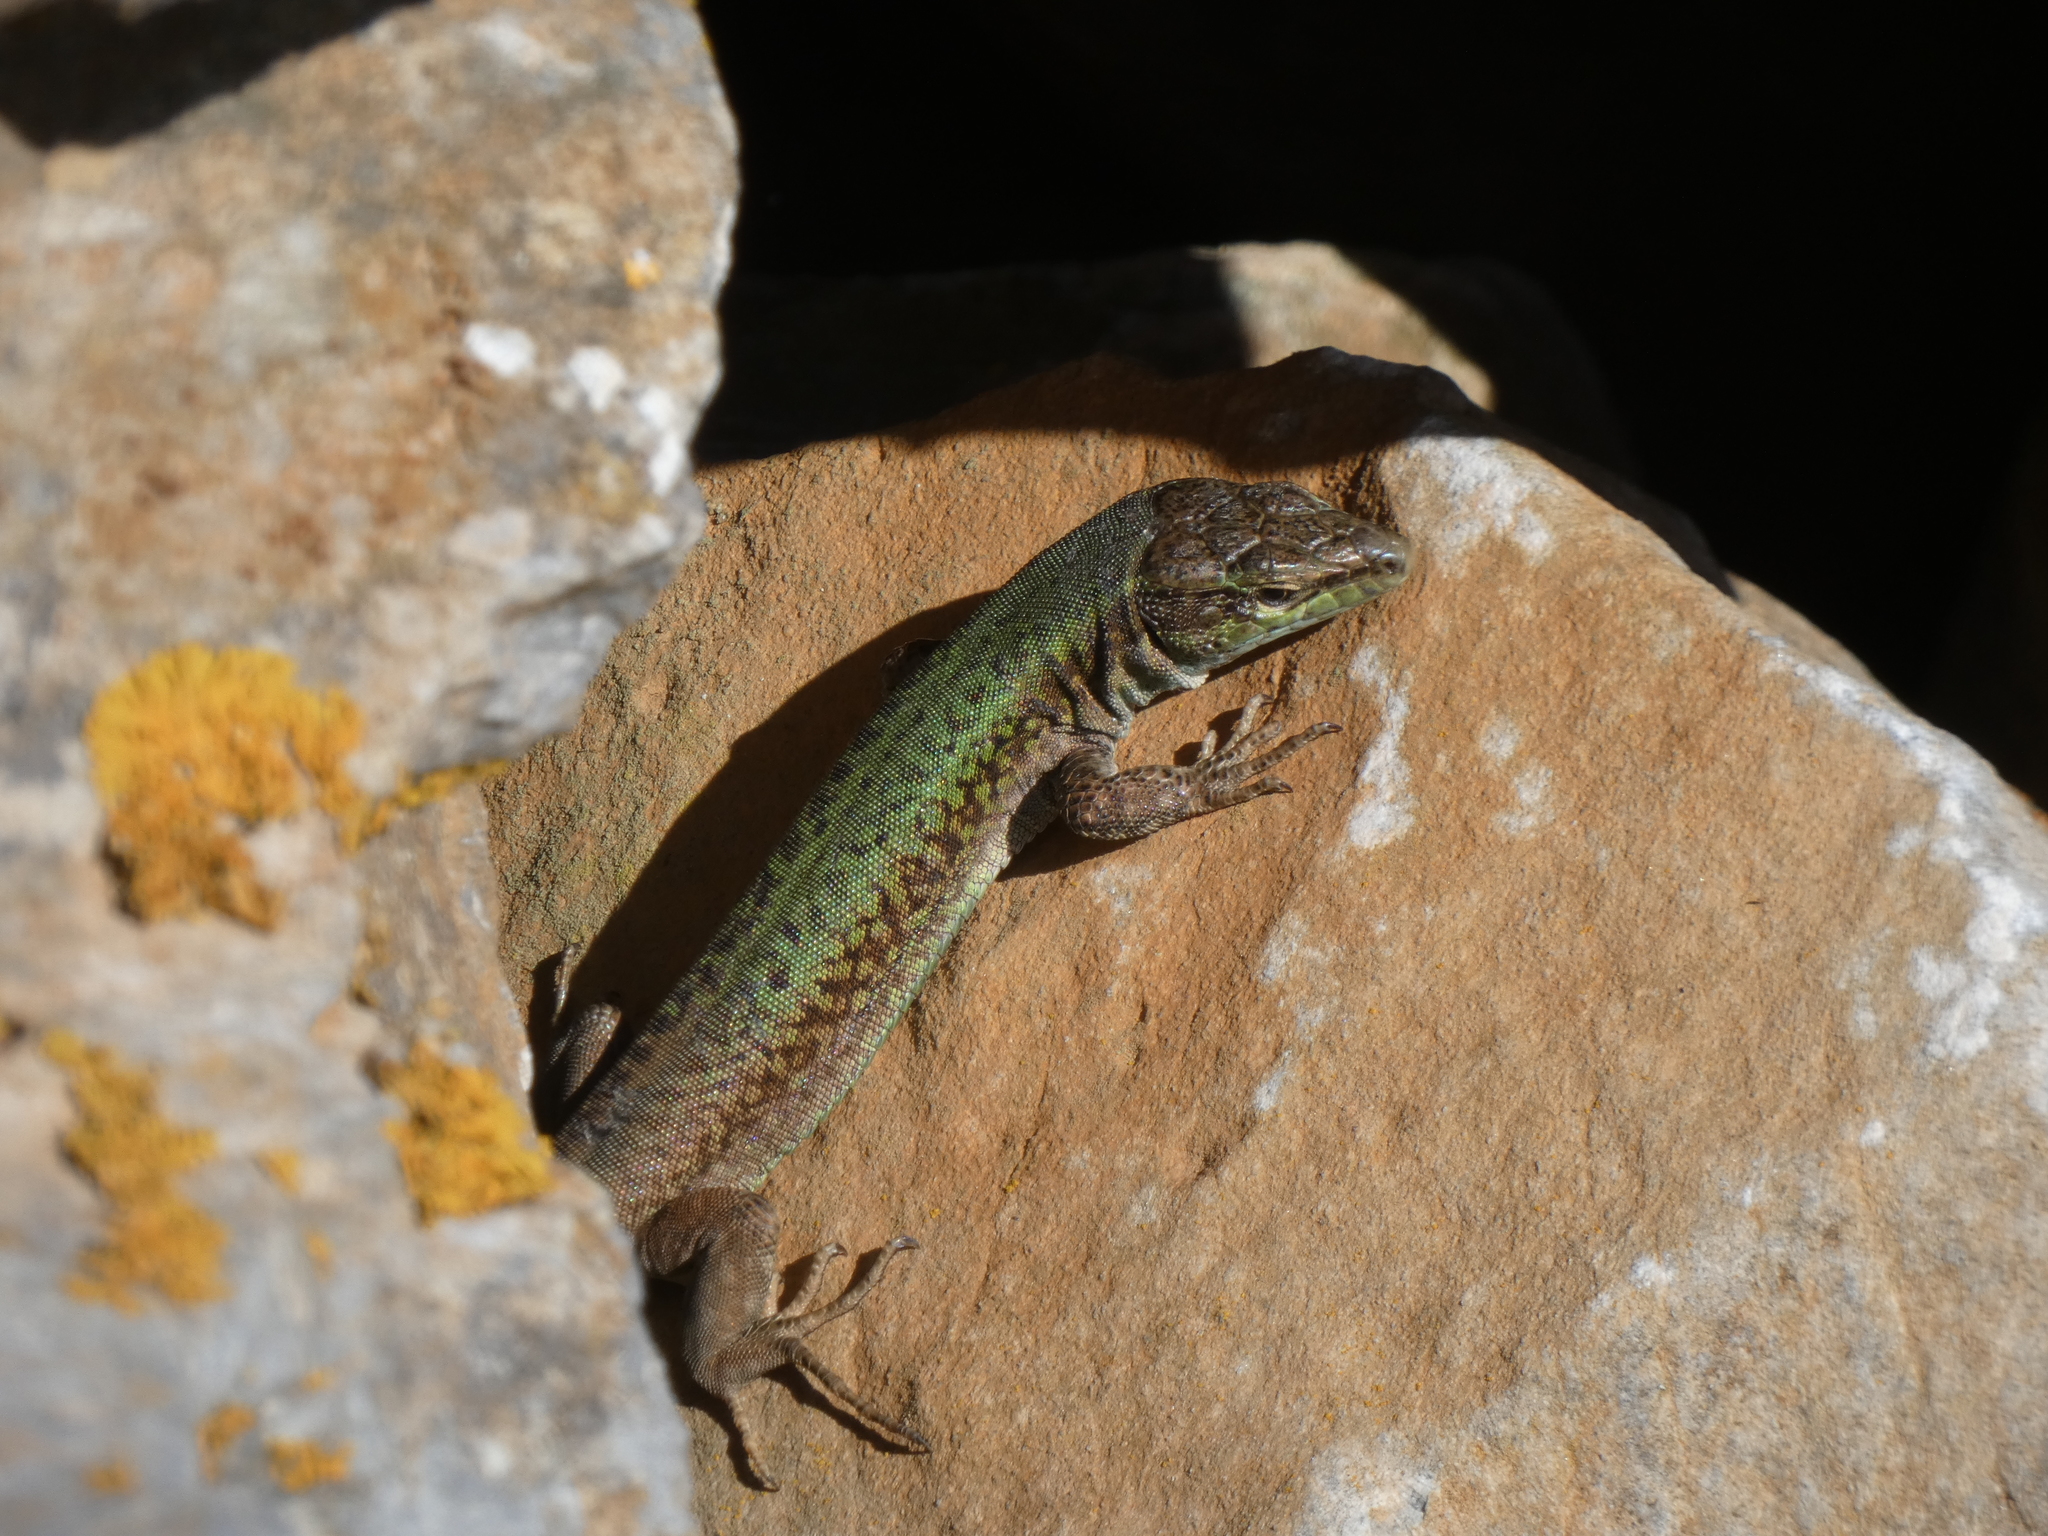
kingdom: Animalia
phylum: Chordata
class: Squamata
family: Lacertidae
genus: Podarcis
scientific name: Podarcis erhardii
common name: Erhard's wall lizard
